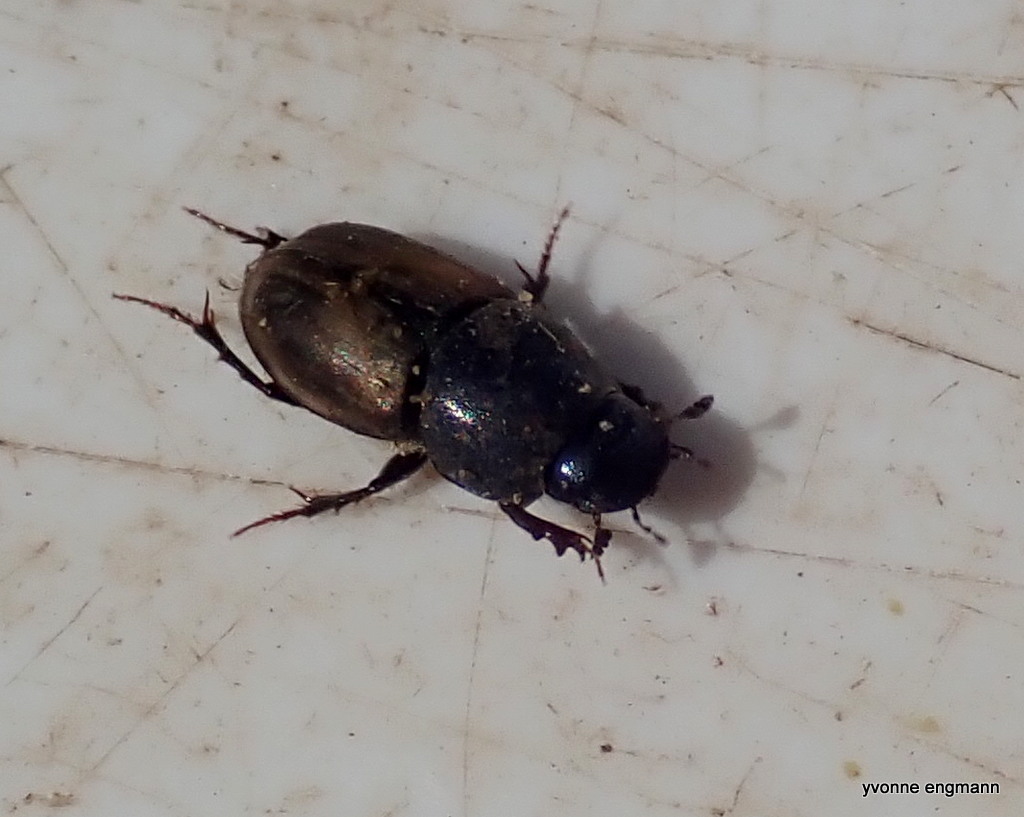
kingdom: Animalia
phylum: Arthropoda
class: Insecta
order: Coleoptera
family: Scarabaeidae
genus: Colobopterus
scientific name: Colobopterus erraticus
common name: Erratic small dung beetle
